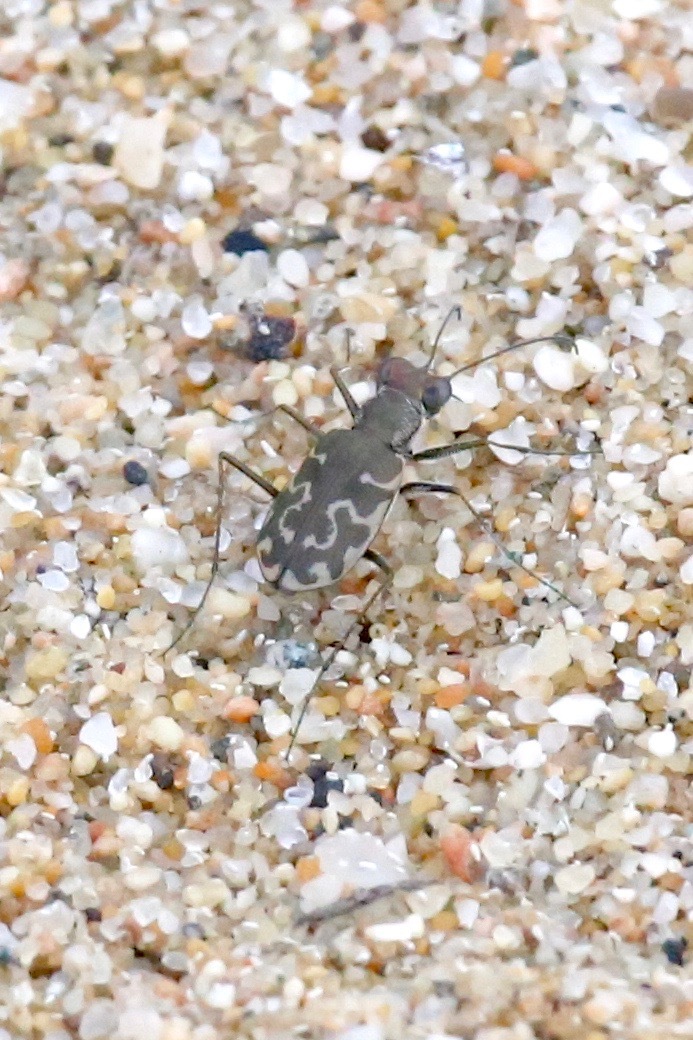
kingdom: Animalia
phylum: Arthropoda
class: Insecta
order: Coleoptera
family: Carabidae
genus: Cicindela
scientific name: Cicindela trifasciata
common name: Mudflat tiger beetle
